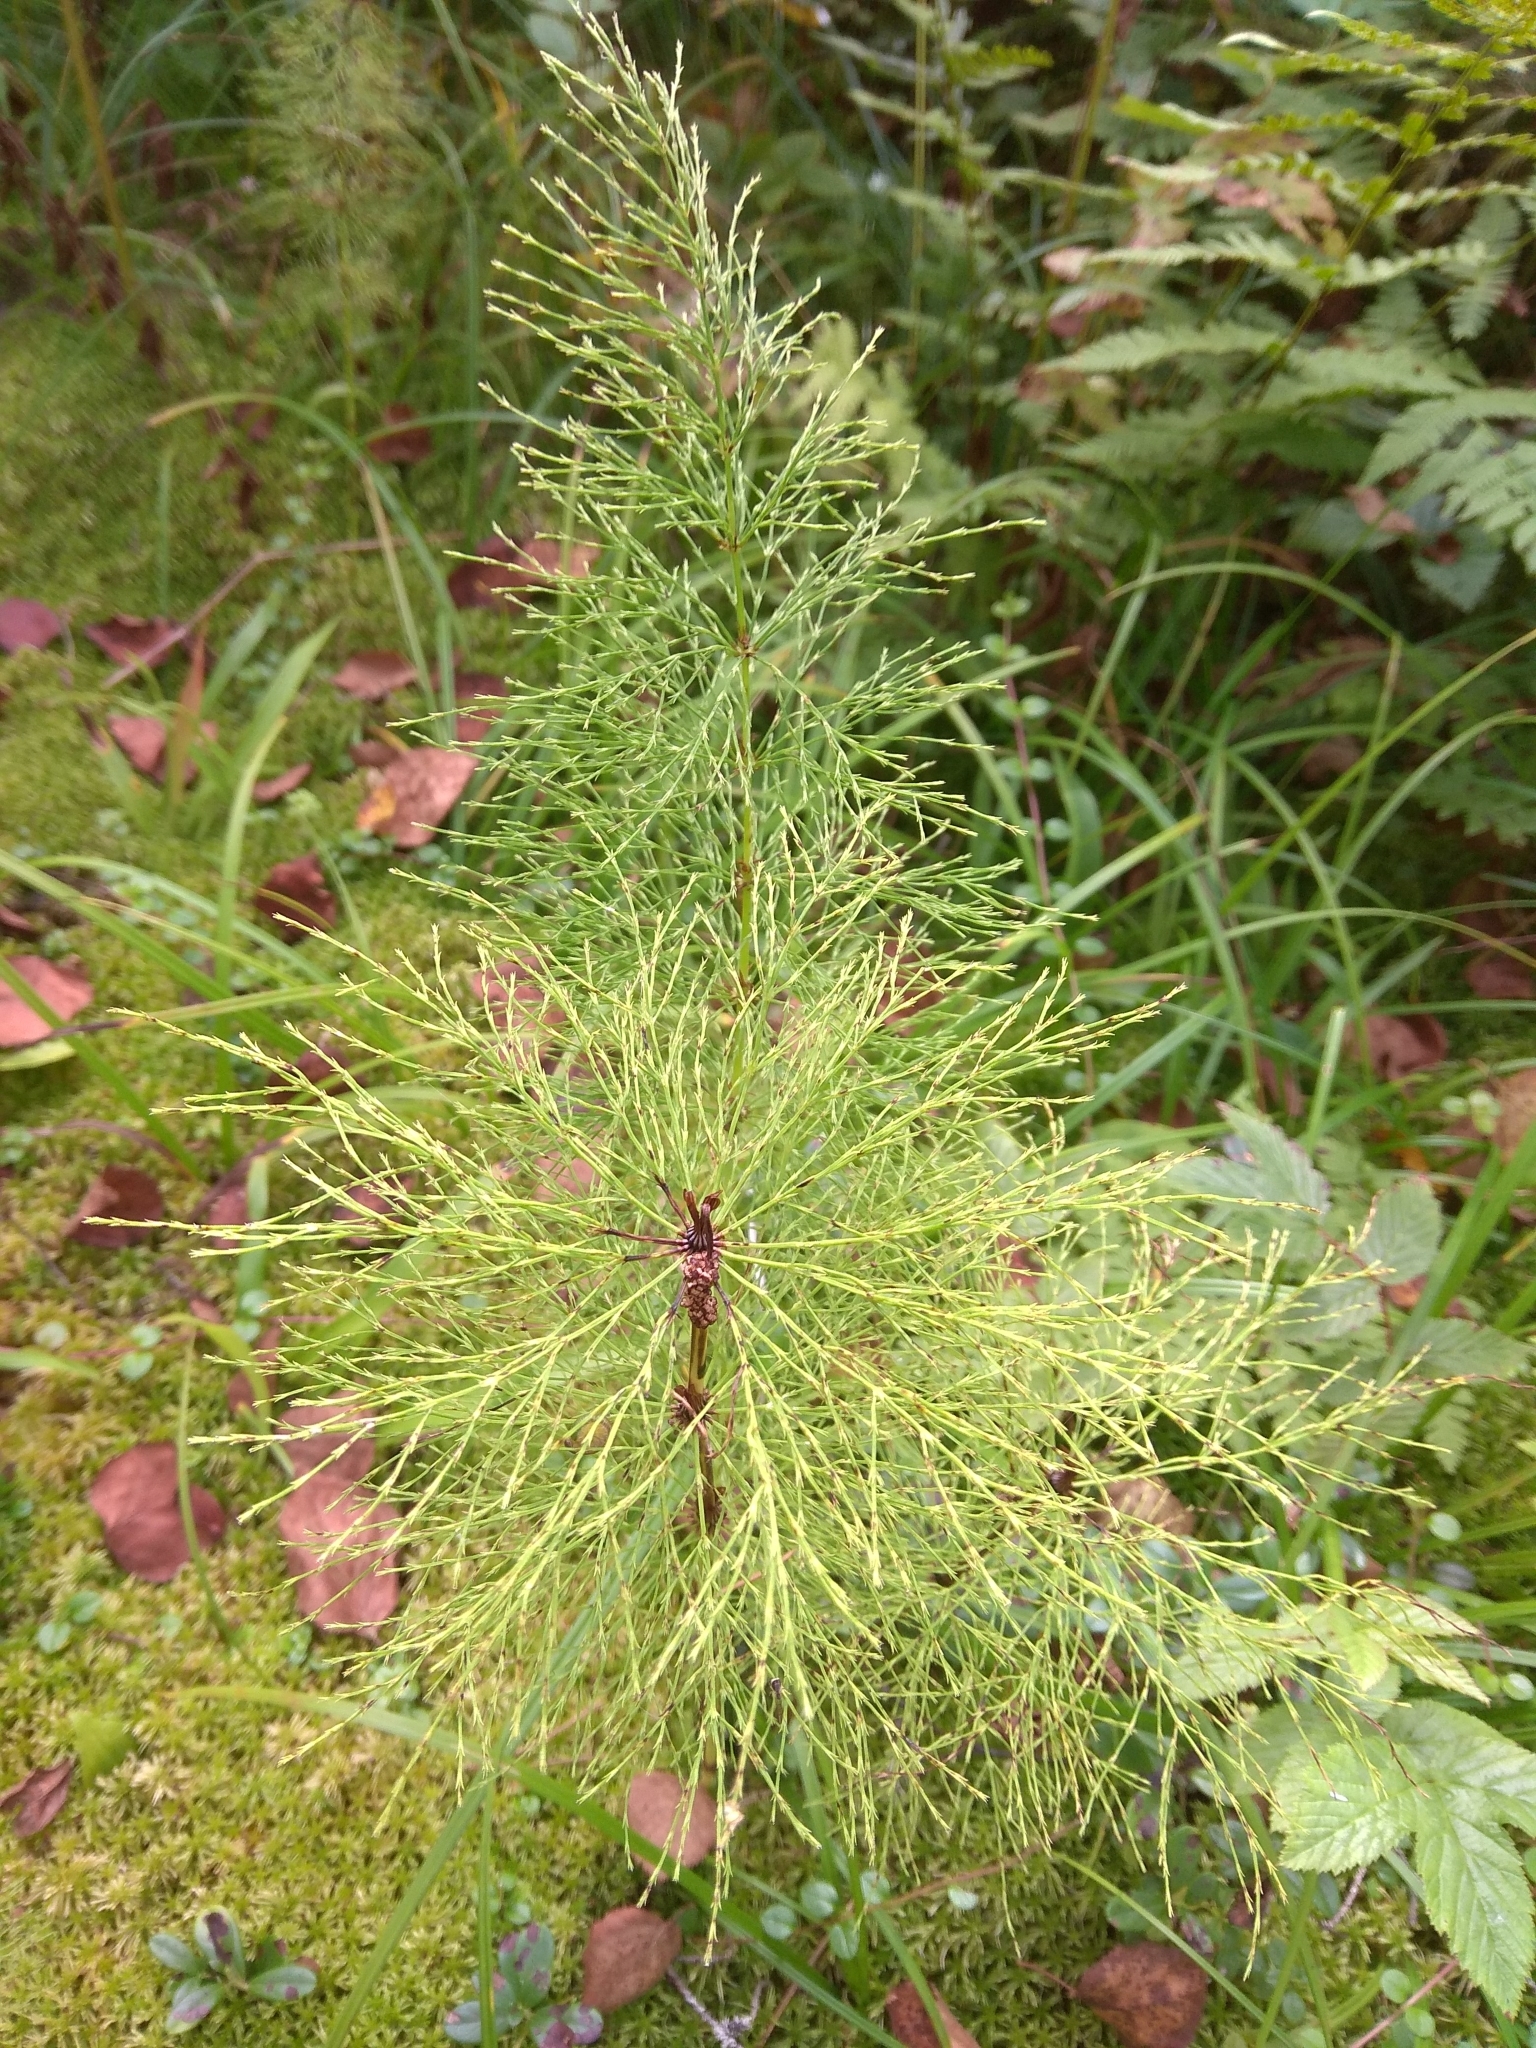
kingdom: Plantae
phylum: Tracheophyta
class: Polypodiopsida
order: Equisetales
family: Equisetaceae
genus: Equisetum
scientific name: Equisetum sylvaticum
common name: Wood horsetail
